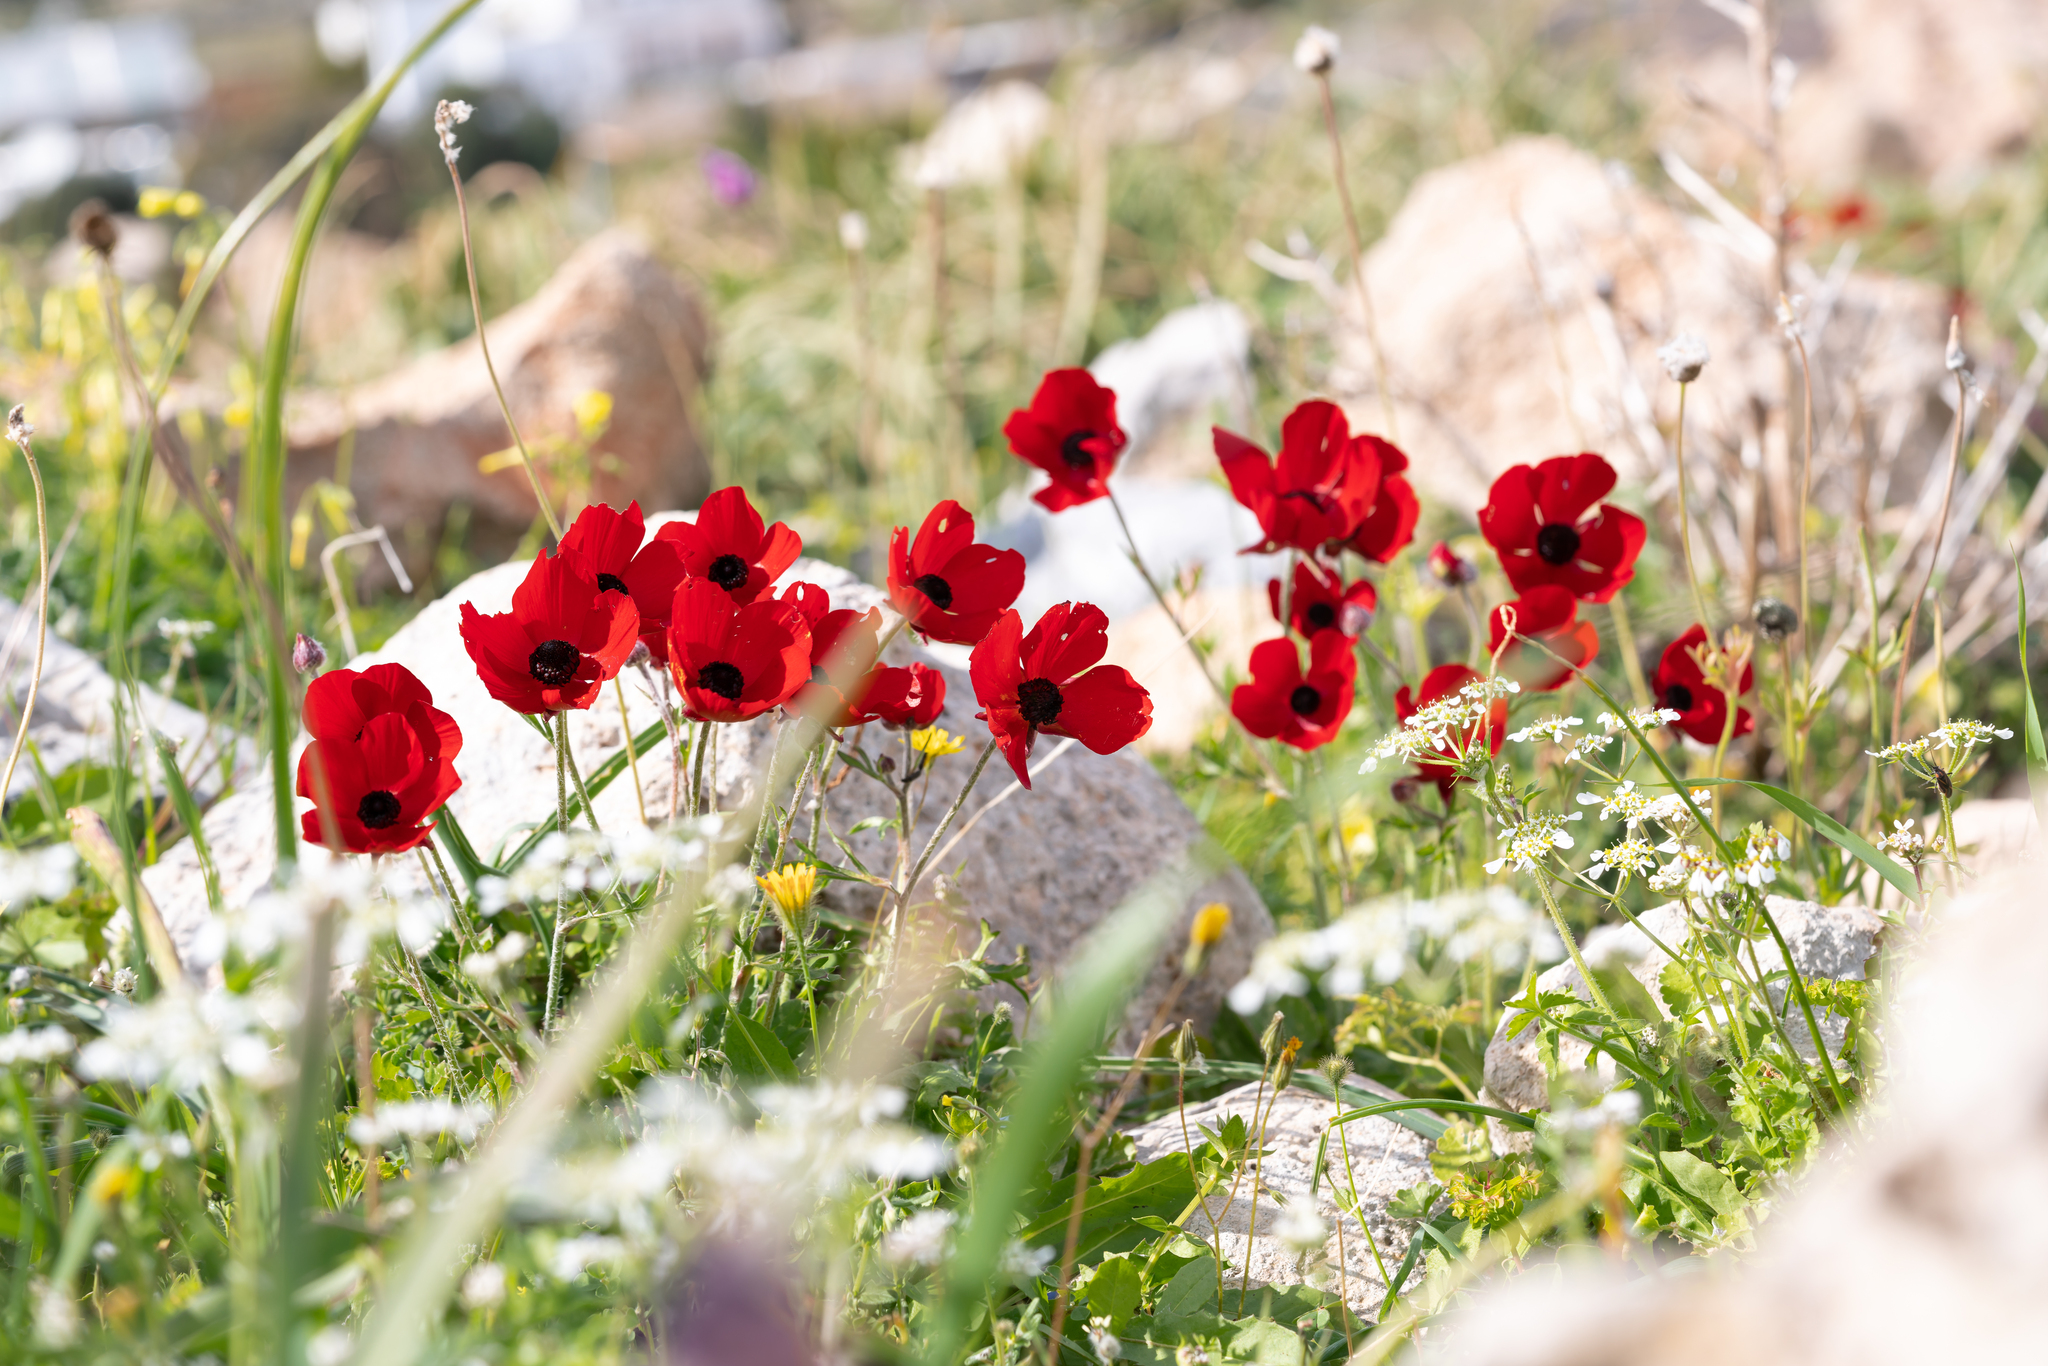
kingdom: Plantae
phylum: Tracheophyta
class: Magnoliopsida
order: Ranunculales
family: Ranunculaceae
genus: Ranunculus
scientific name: Ranunculus asiaticus
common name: Persian buttercup
